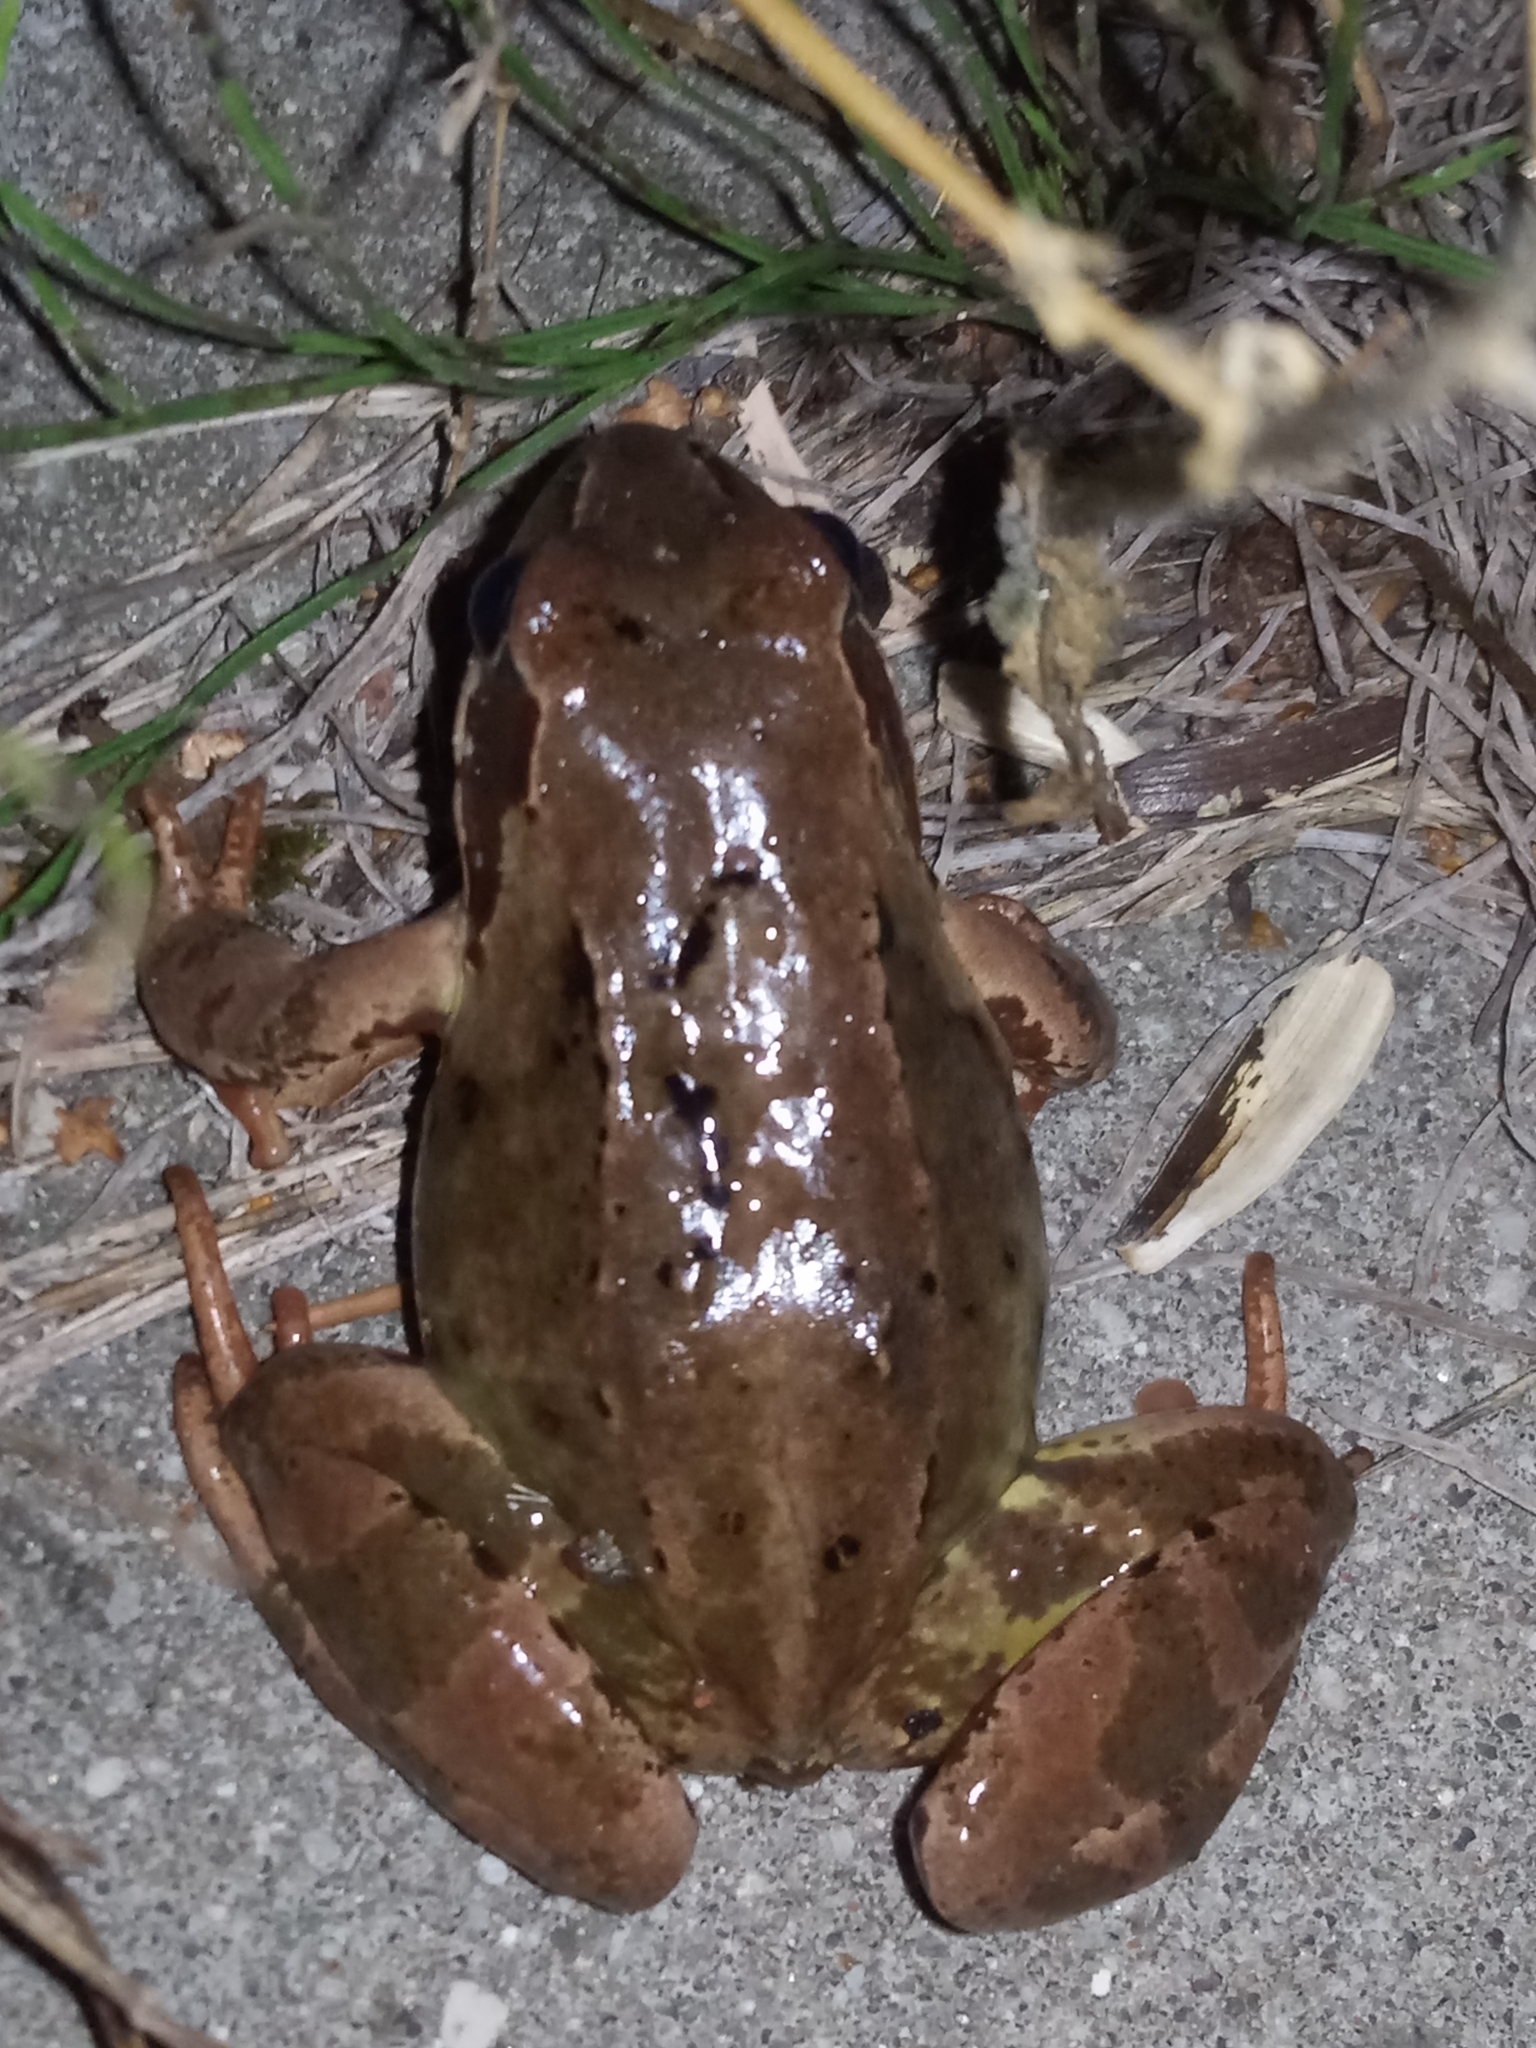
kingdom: Animalia
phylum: Chordata
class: Amphibia
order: Anura
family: Ranidae
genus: Rana
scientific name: Rana temporaria
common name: Common frog
